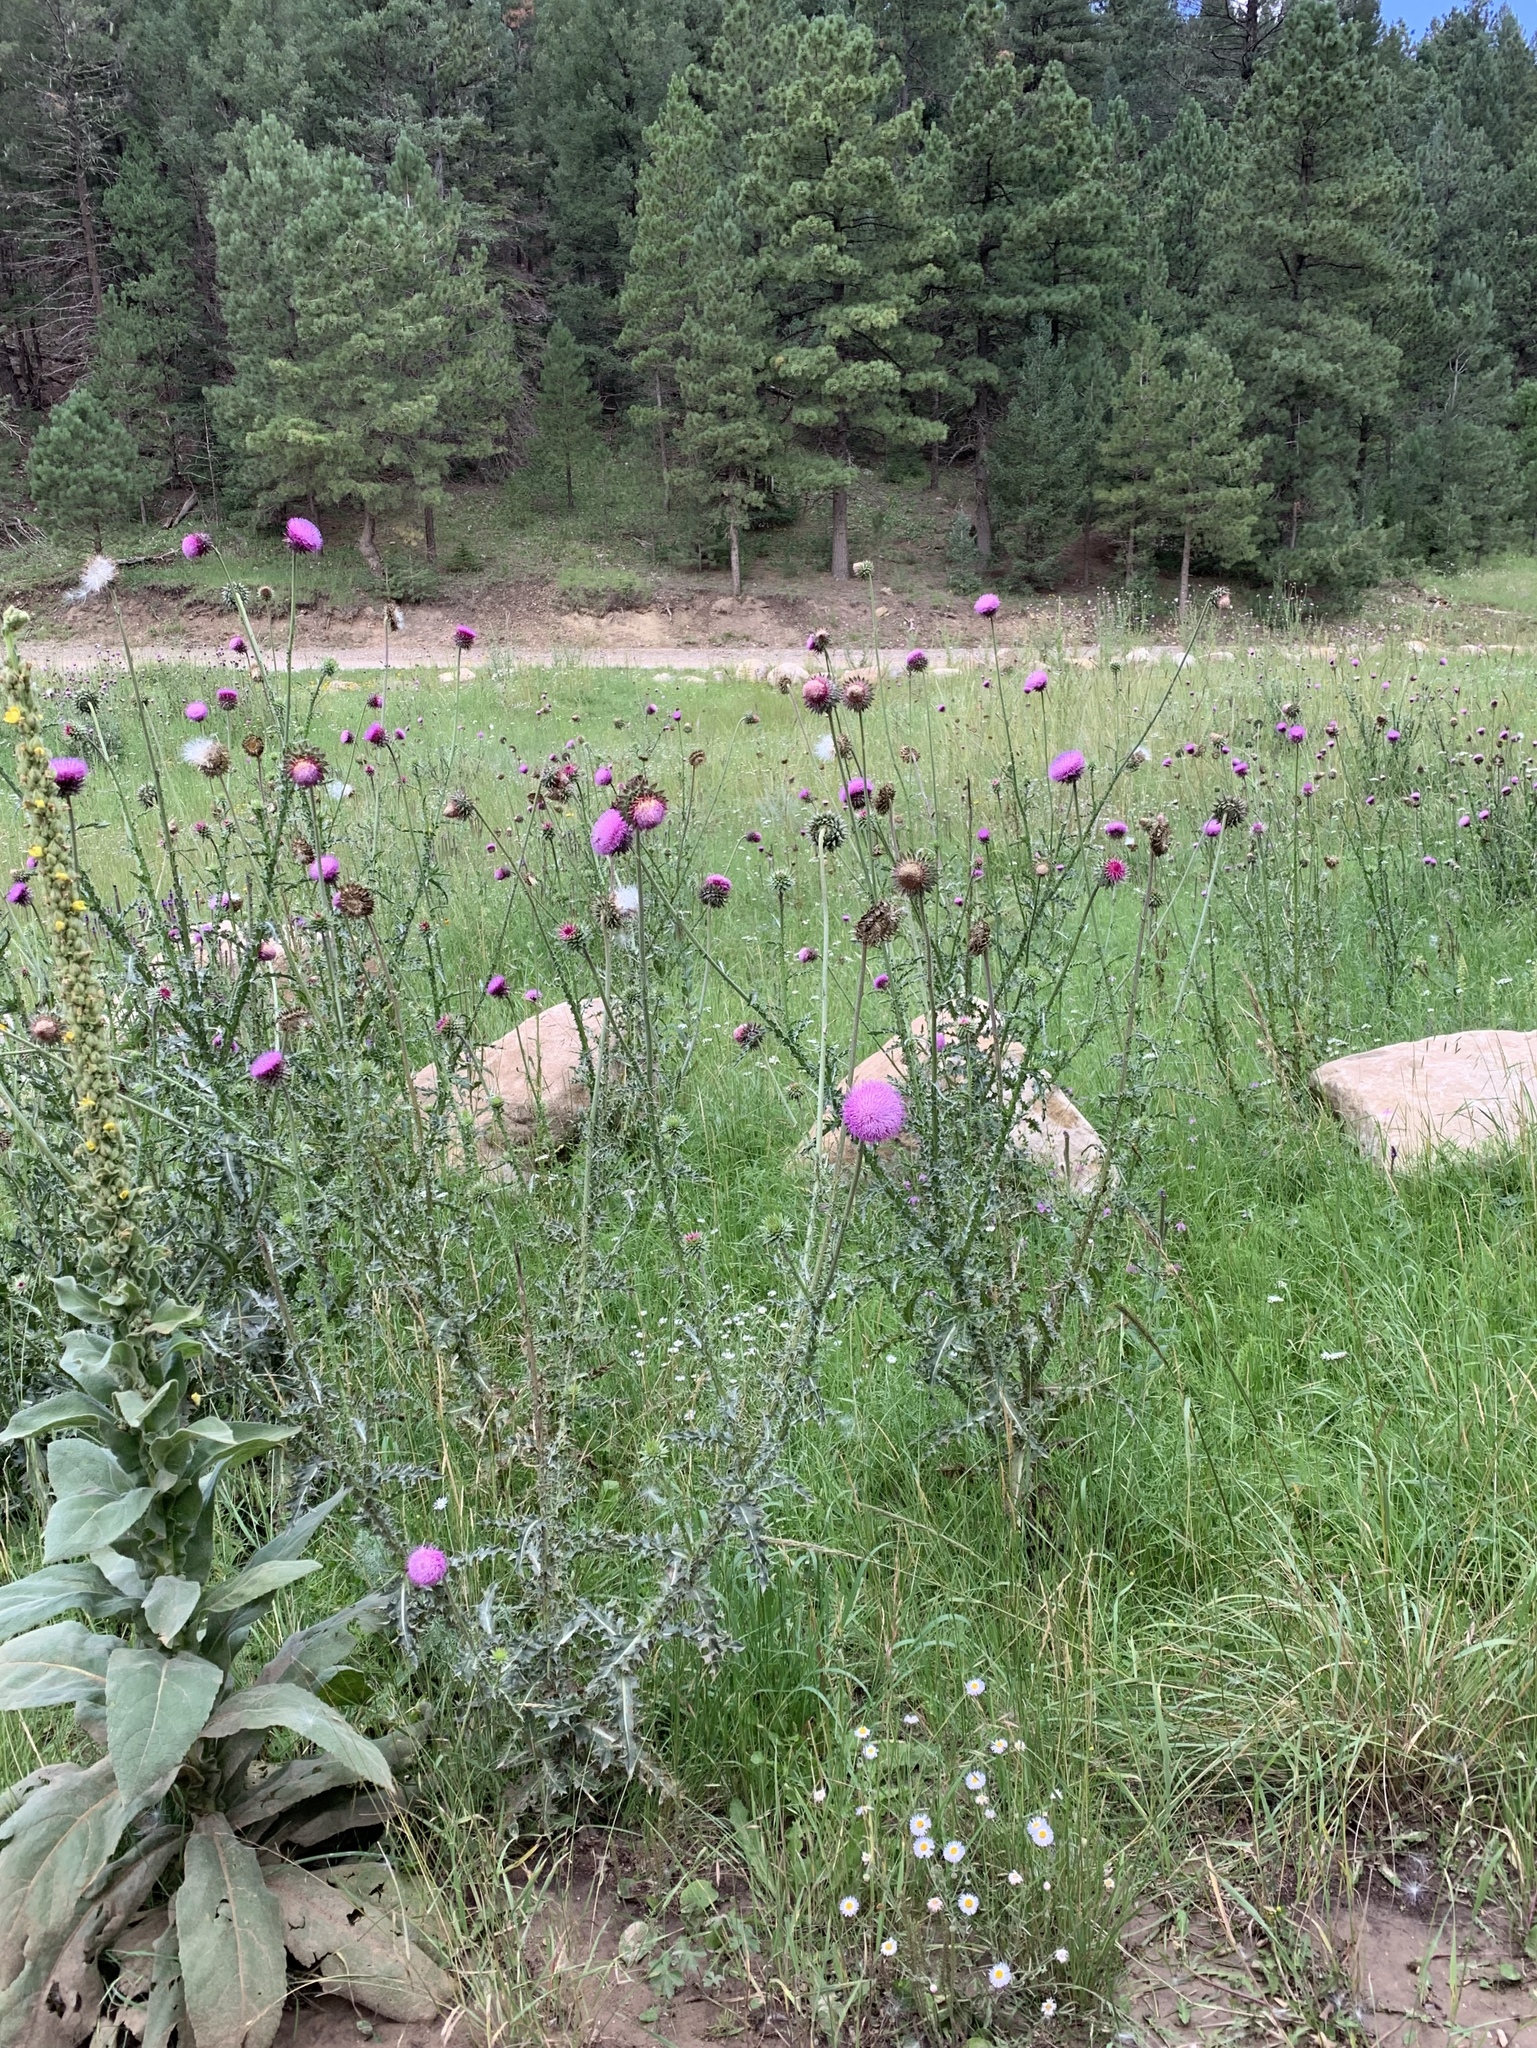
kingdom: Plantae
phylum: Tracheophyta
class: Magnoliopsida
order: Asterales
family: Asteraceae
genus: Carduus
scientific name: Carduus nutans
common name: Musk thistle
